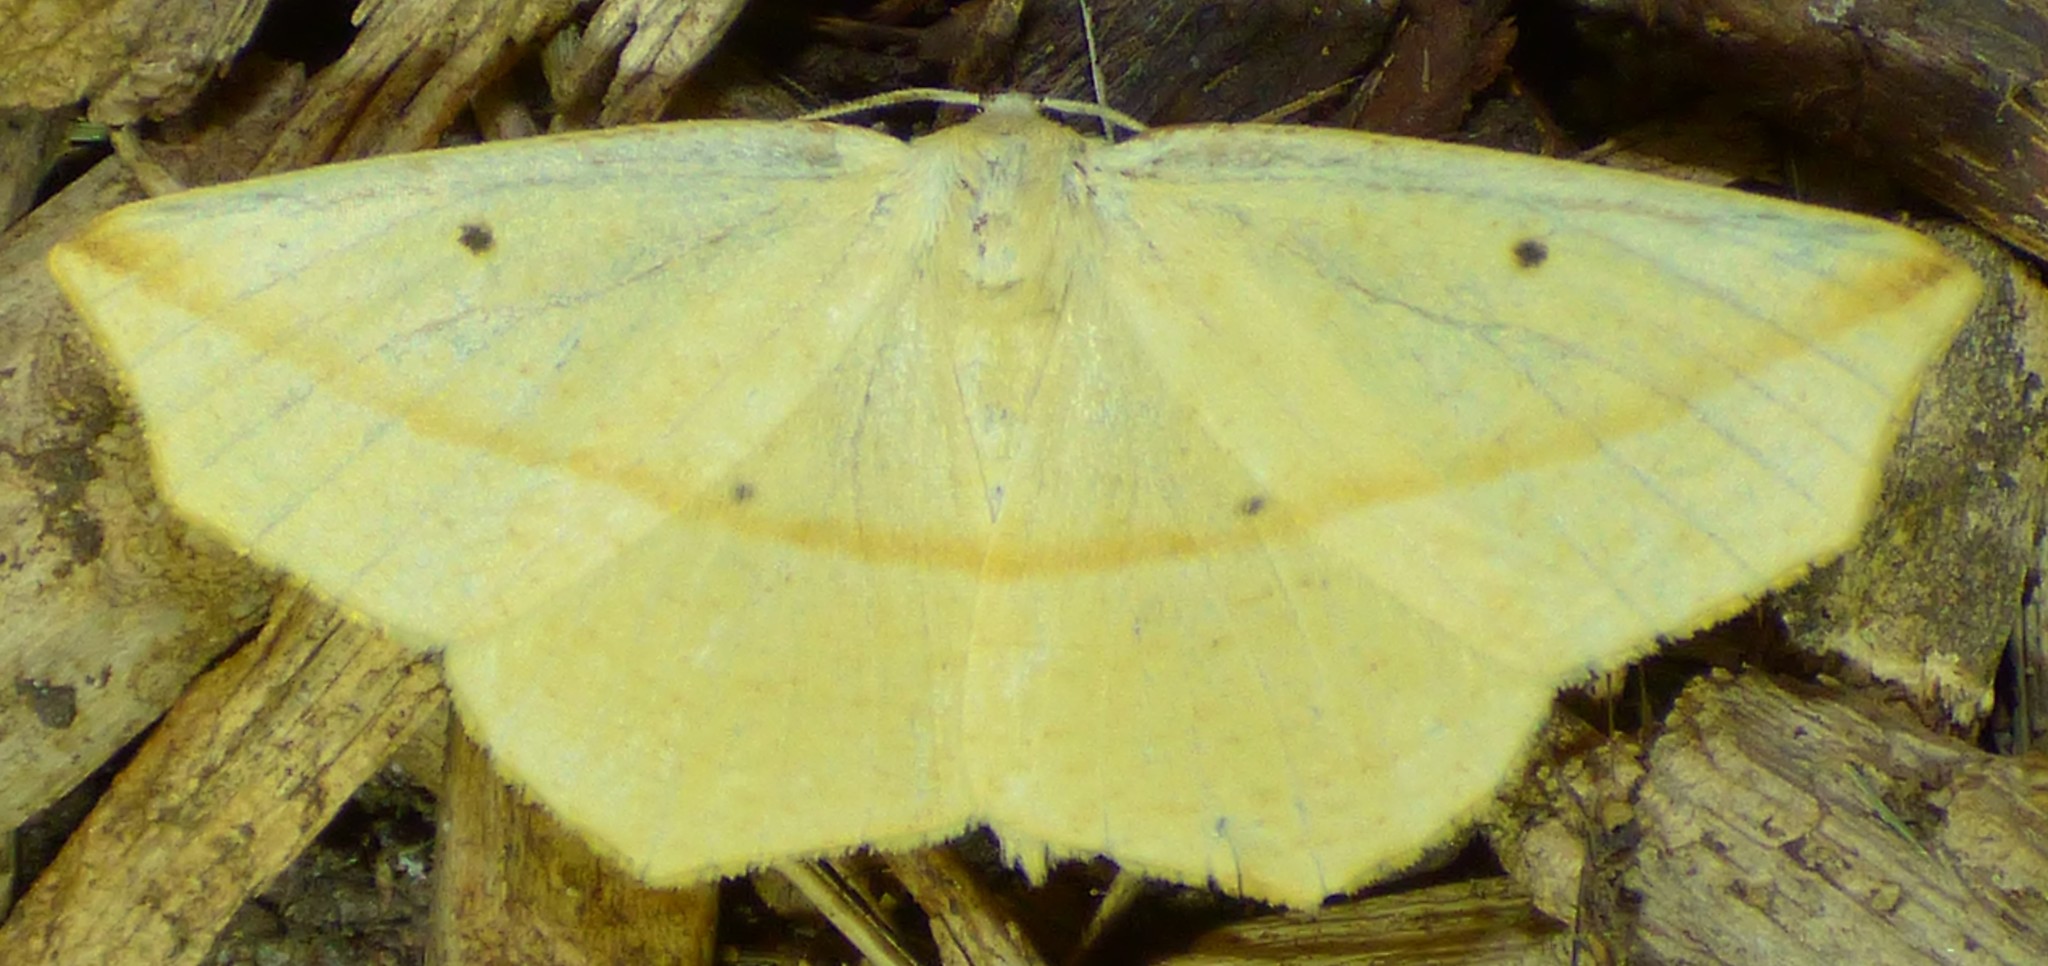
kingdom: Animalia
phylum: Arthropoda
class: Insecta
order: Lepidoptera
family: Geometridae
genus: Tetracis
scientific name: Tetracis crocallata
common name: Yellow slant-line
